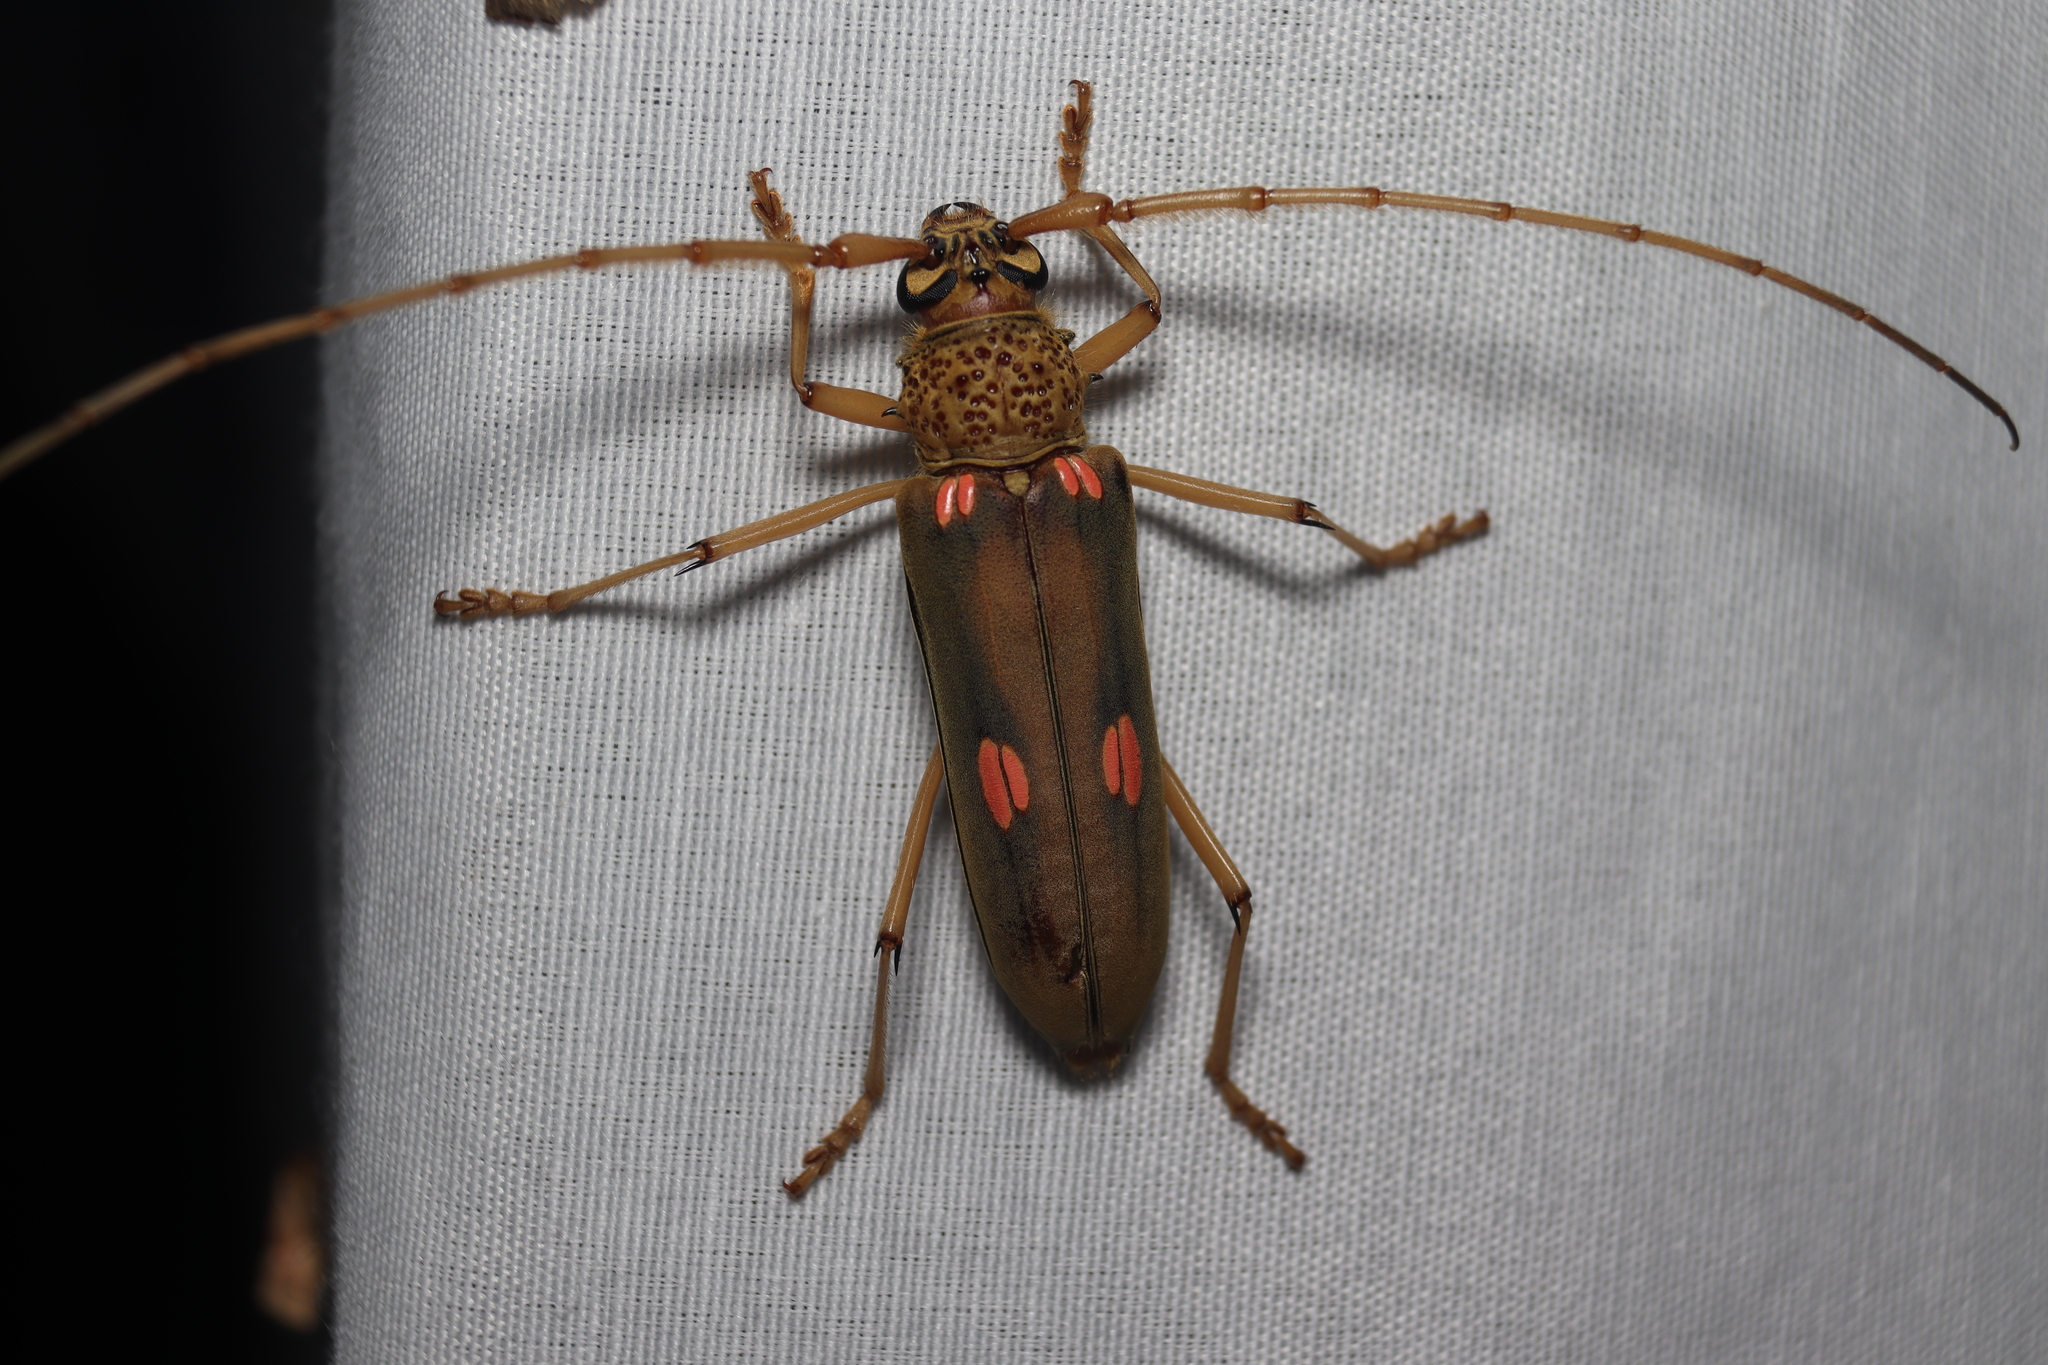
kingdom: Animalia
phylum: Arthropoda
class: Insecta
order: Coleoptera
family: Cerambycidae
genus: Susuacanga
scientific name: Susuacanga octoguttata
